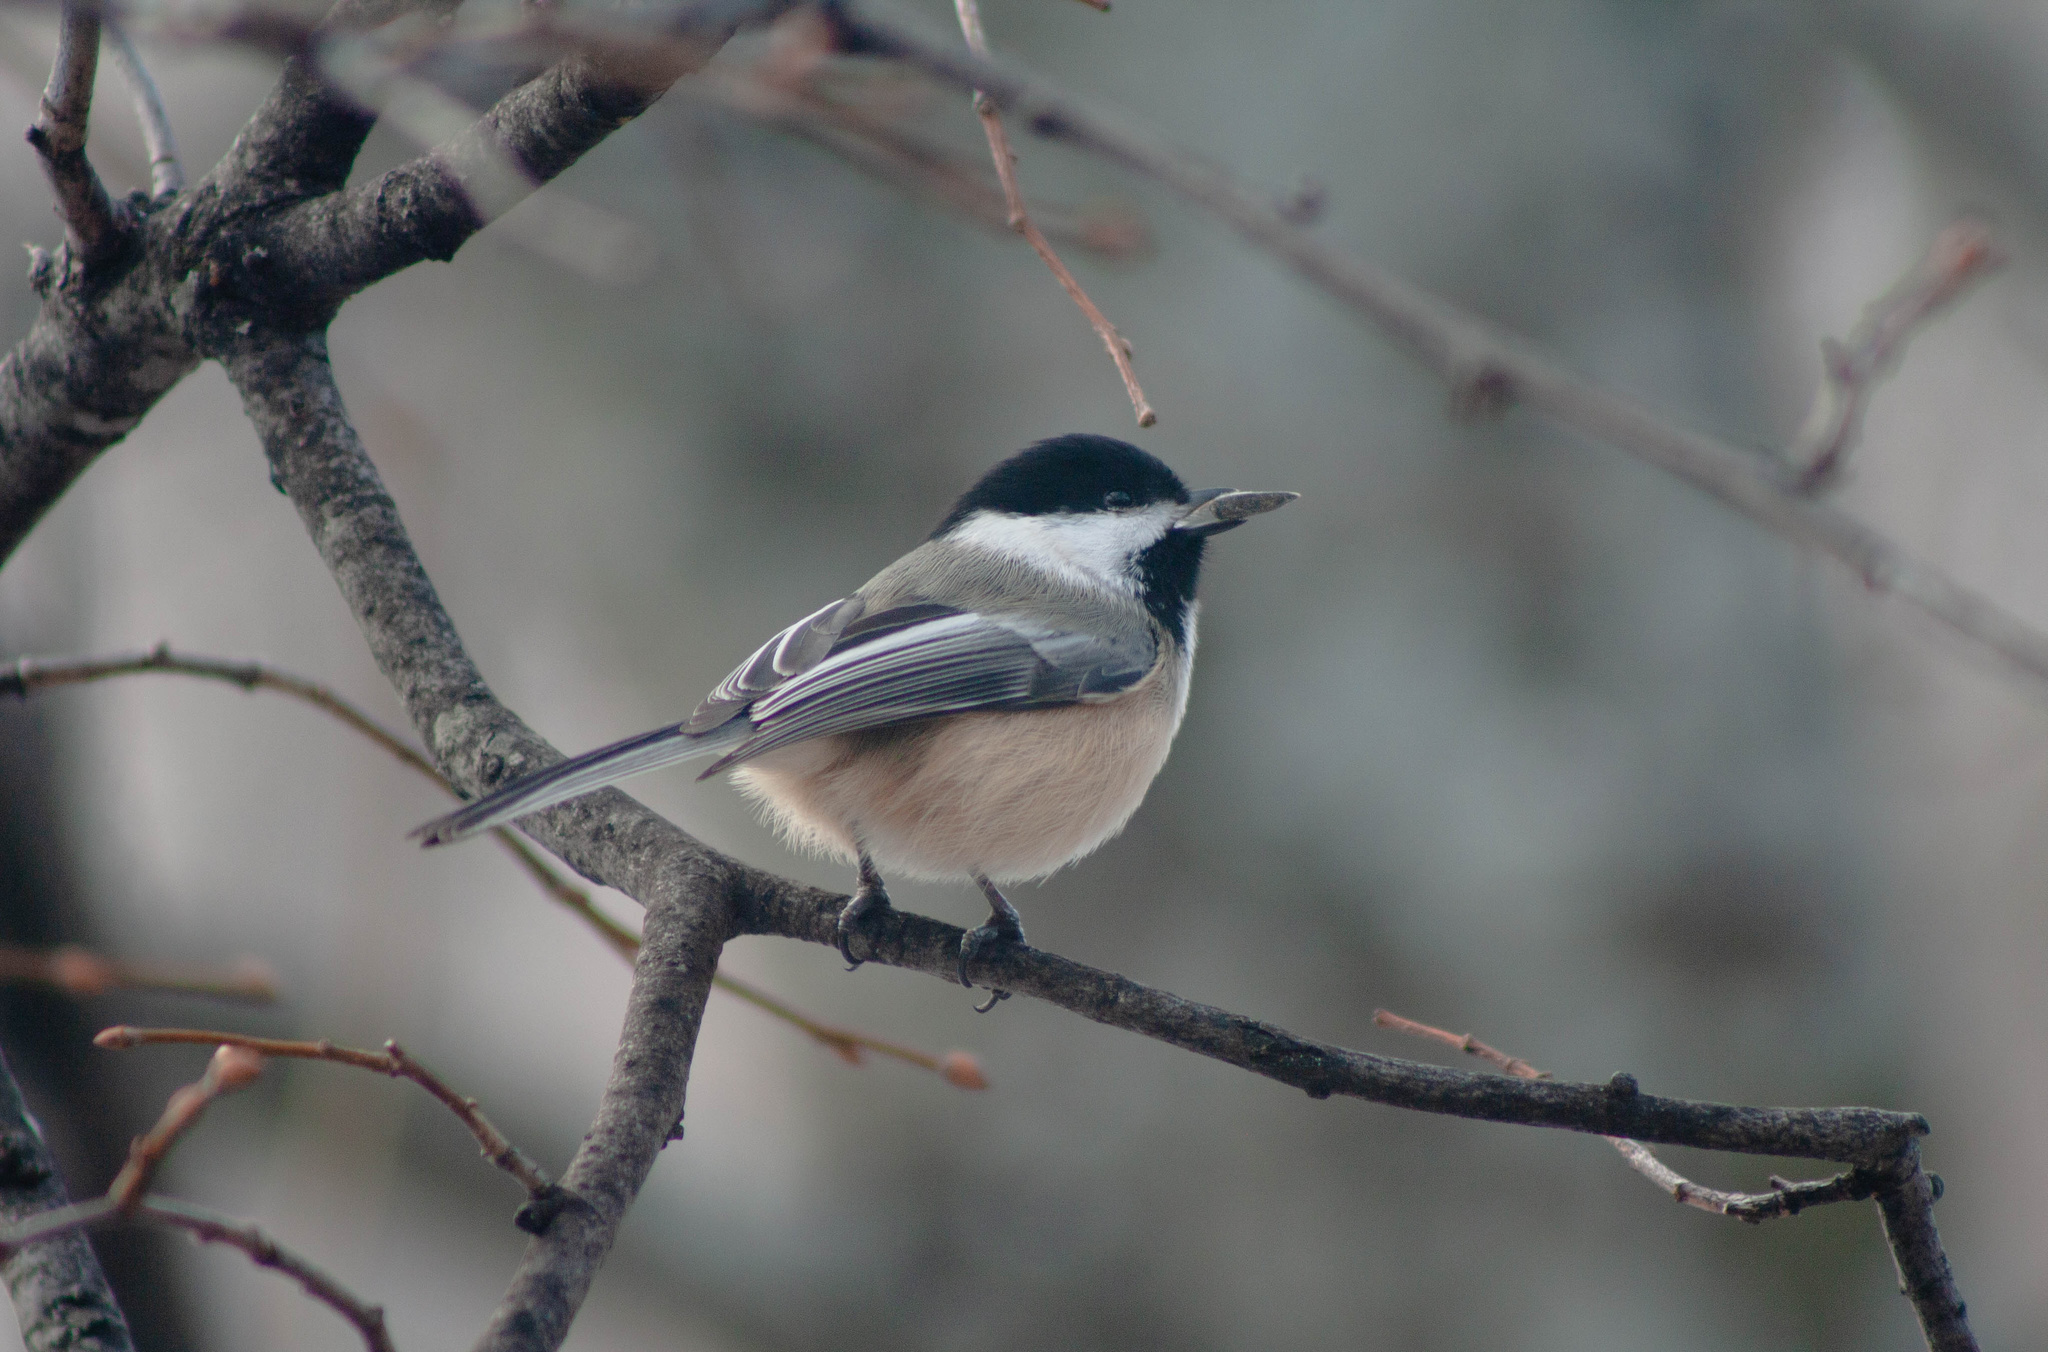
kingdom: Animalia
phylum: Chordata
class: Aves
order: Passeriformes
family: Paridae
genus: Poecile
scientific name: Poecile atricapillus
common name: Black-capped chickadee
